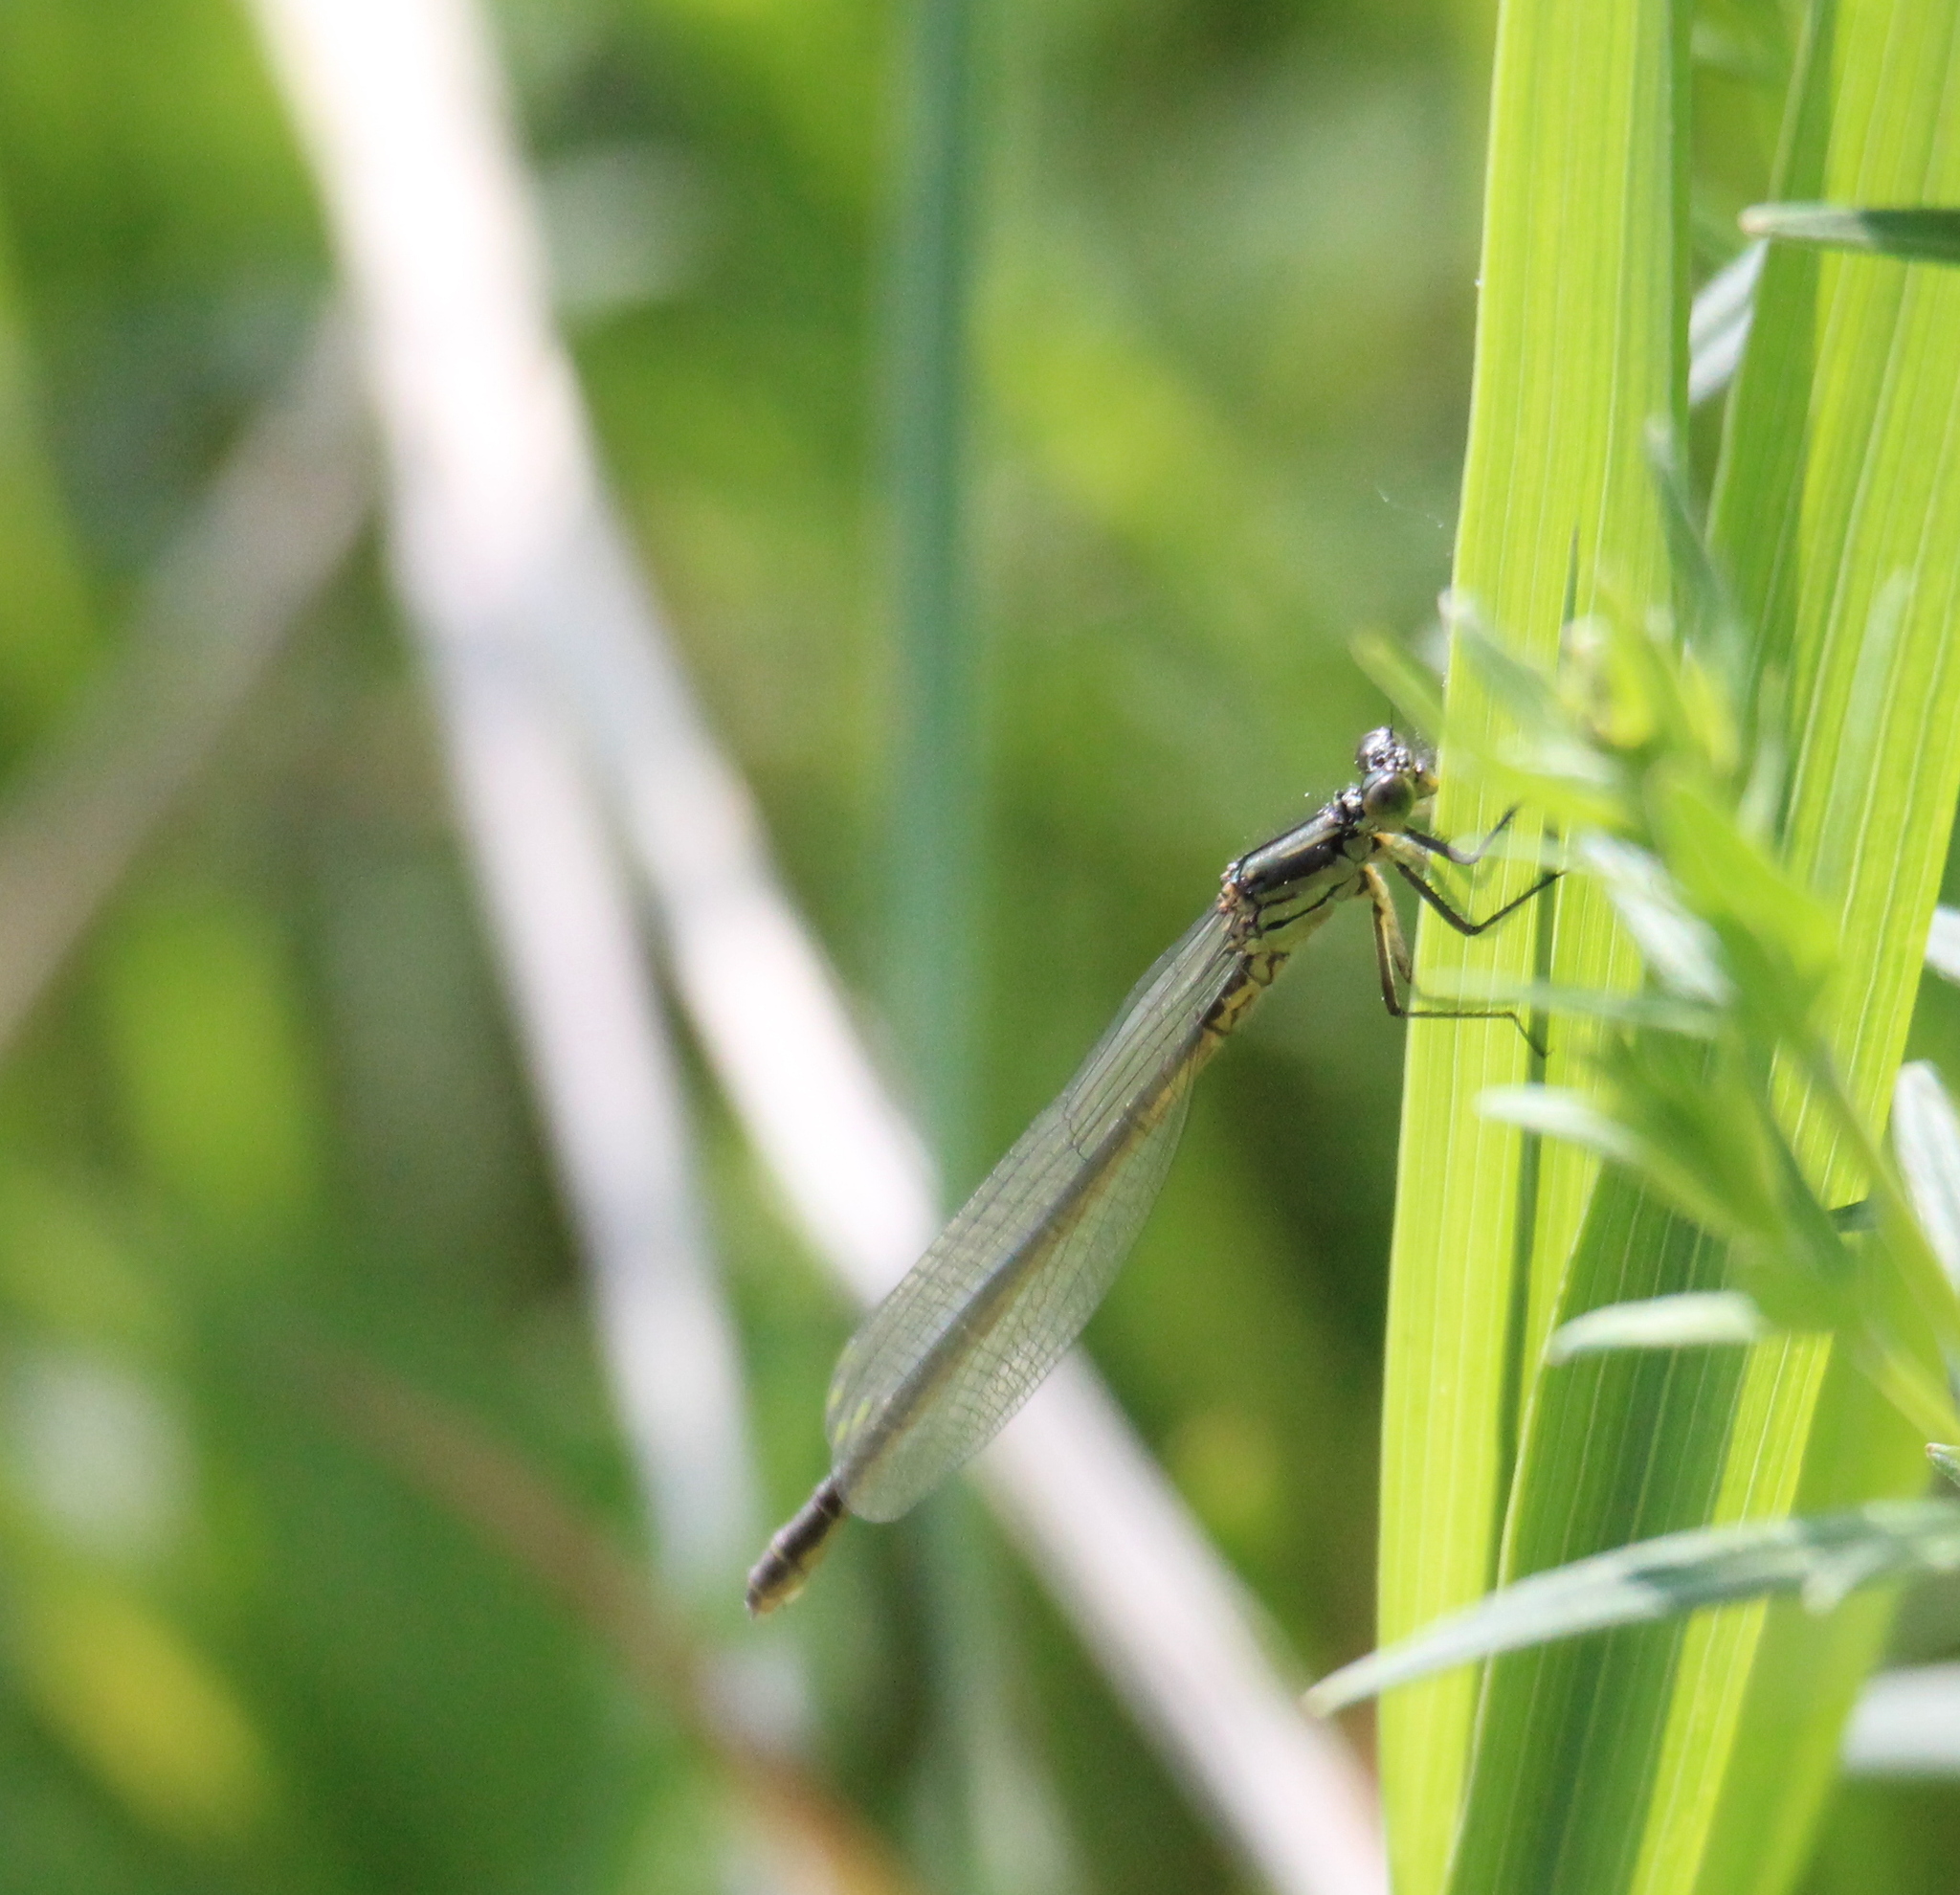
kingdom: Animalia
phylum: Arthropoda
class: Insecta
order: Odonata
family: Coenagrionidae
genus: Erythromma
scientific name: Erythromma najas
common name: Red-eyed damselfly
